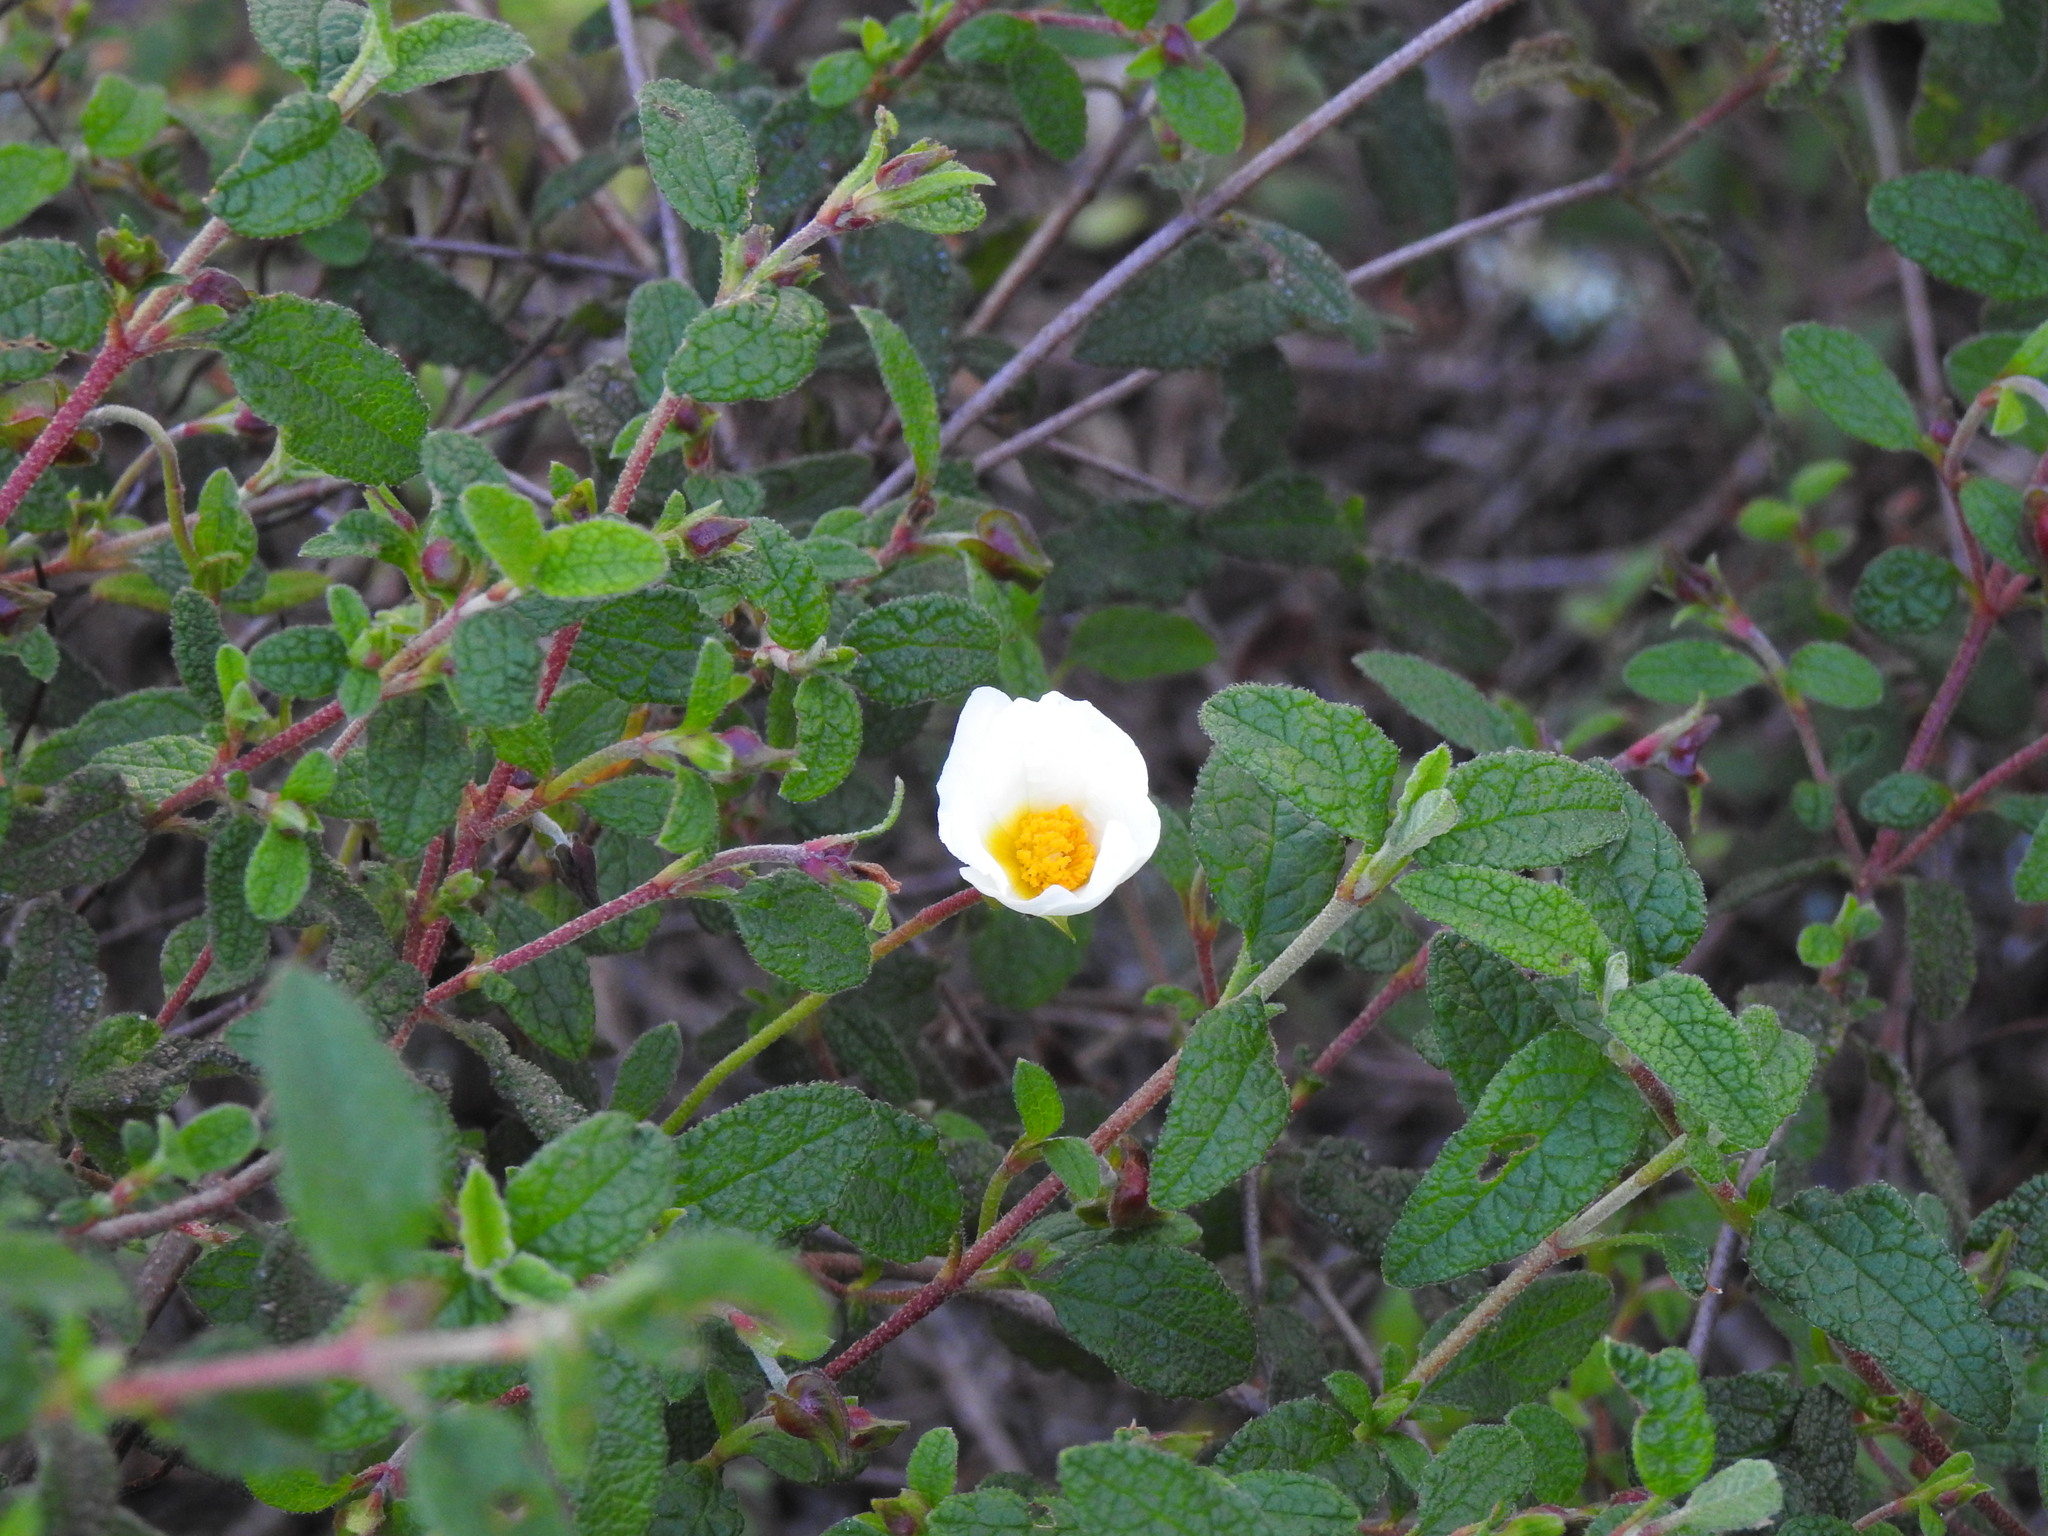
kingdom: Plantae
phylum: Tracheophyta
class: Magnoliopsida
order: Malvales
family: Cistaceae
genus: Cistus
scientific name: Cistus salviifolius
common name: Salvia cistus
